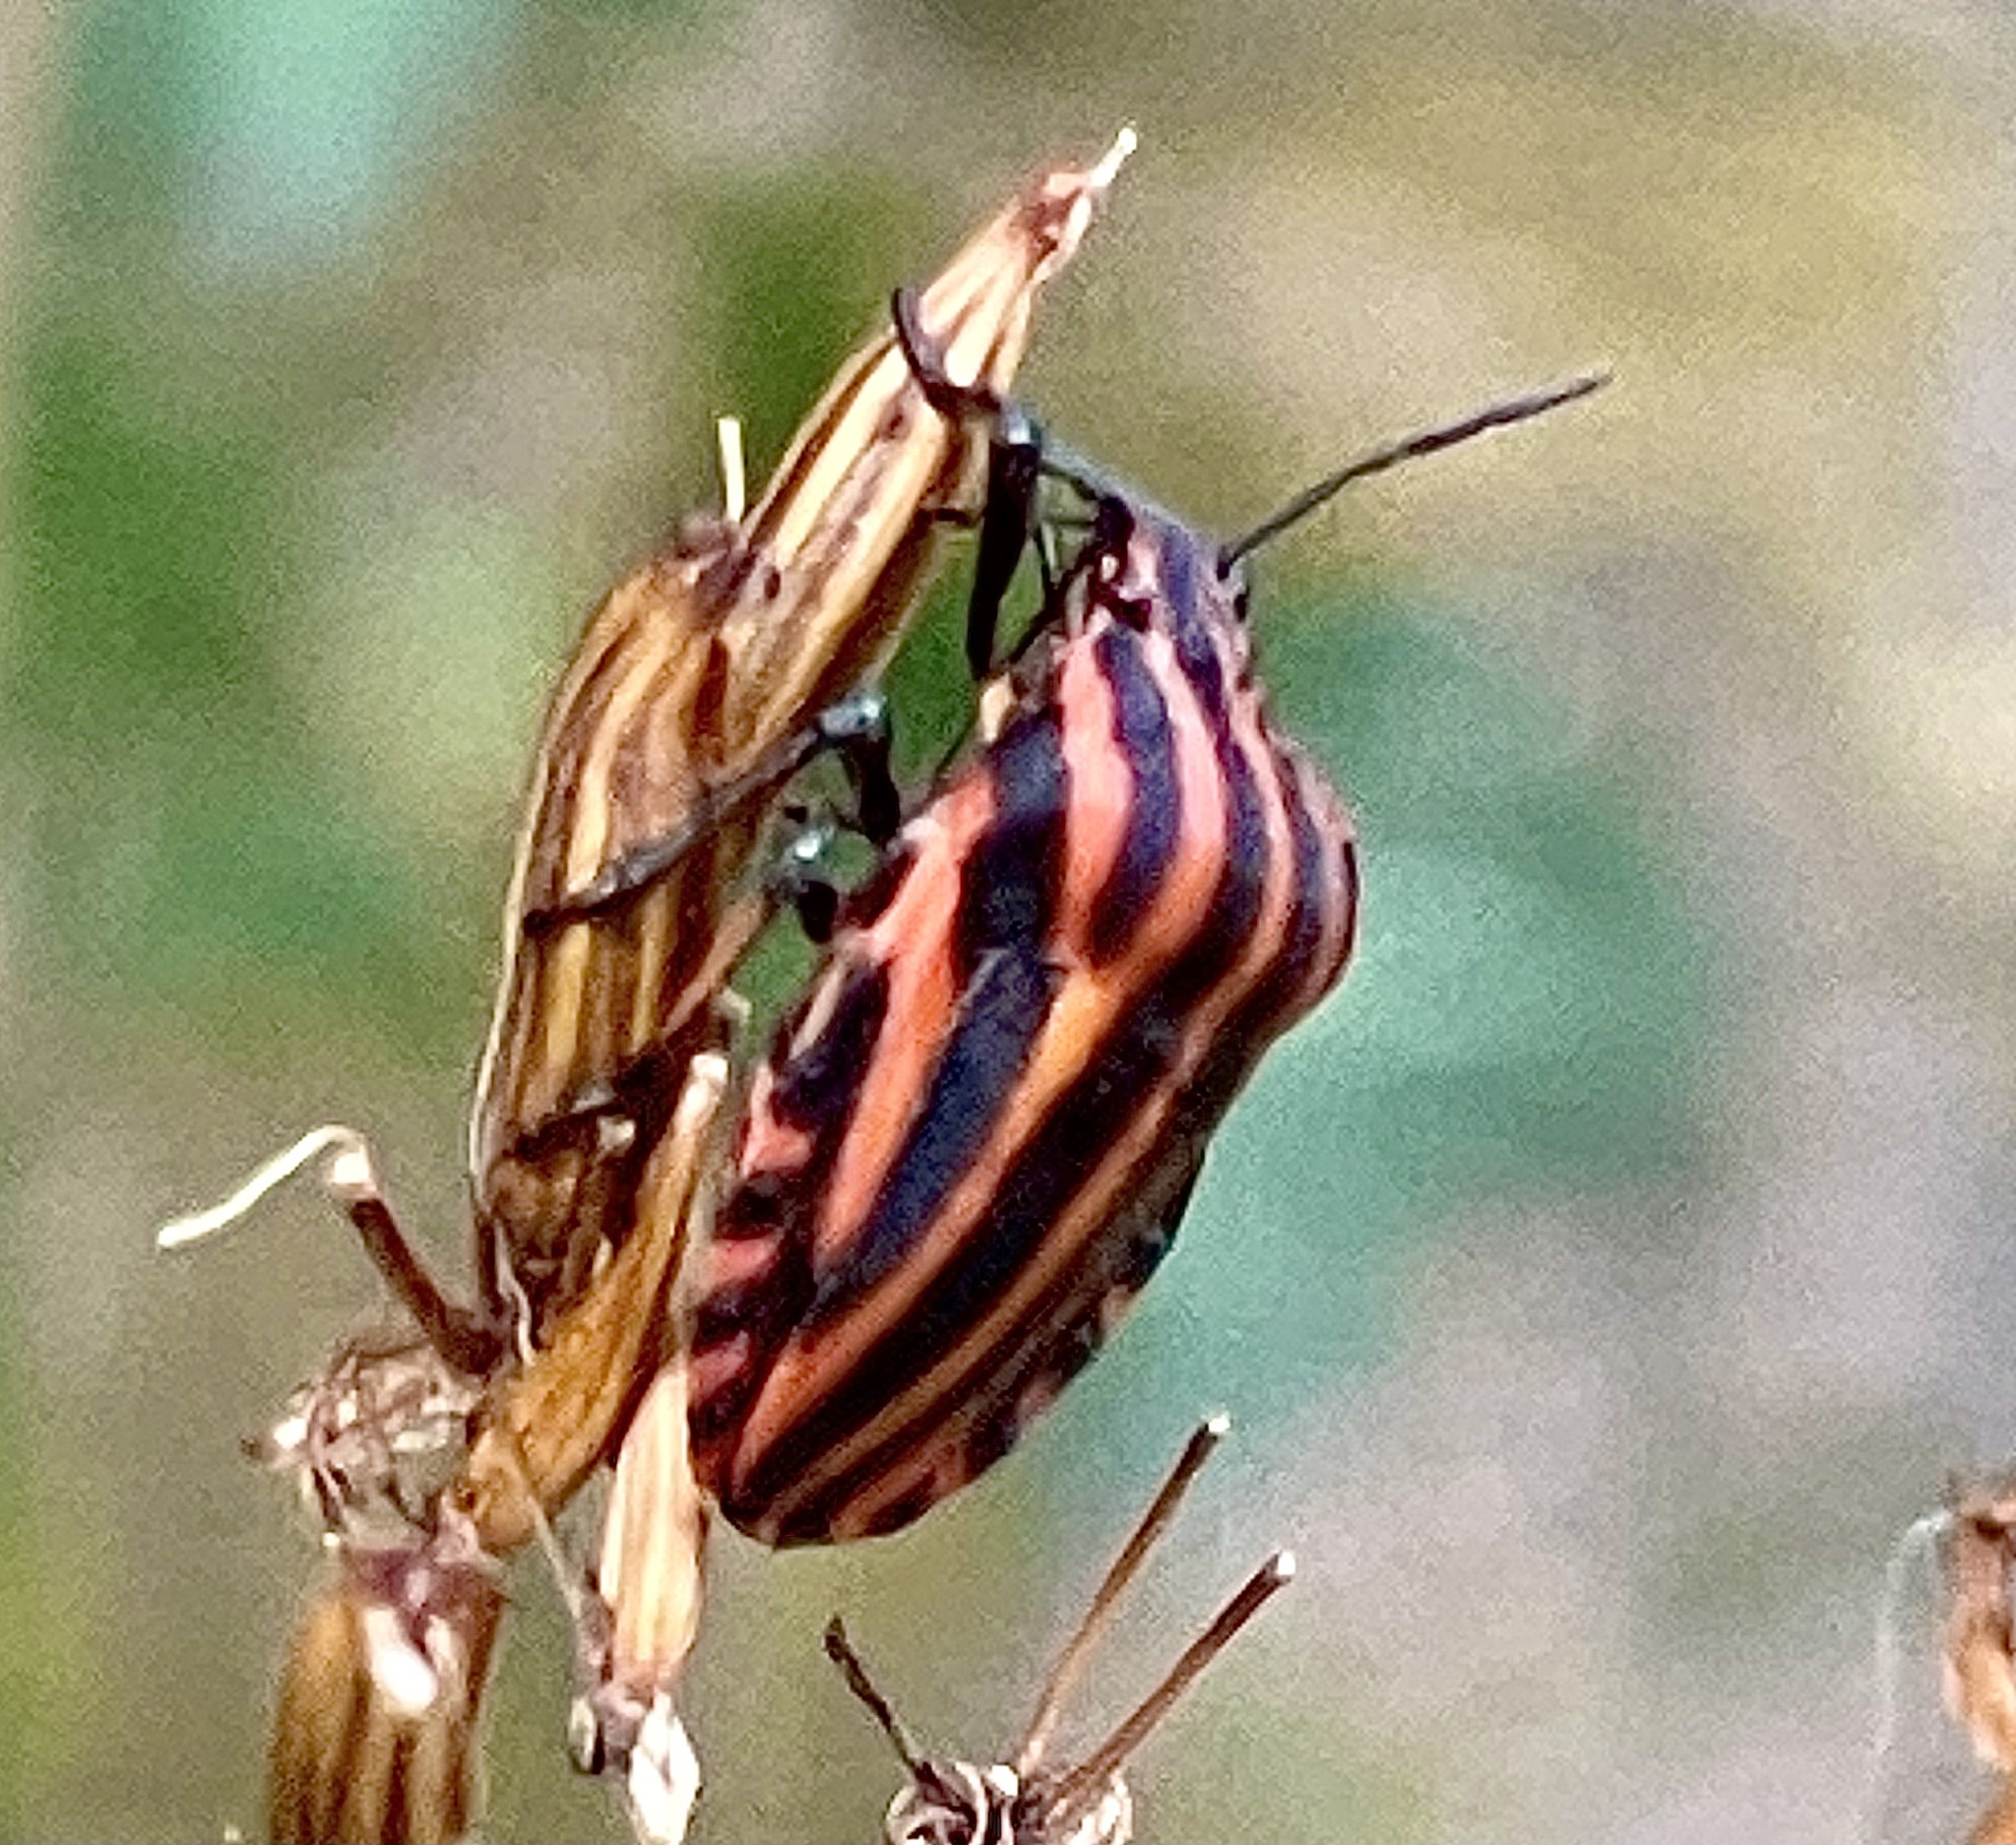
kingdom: Animalia
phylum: Arthropoda
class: Insecta
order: Hemiptera
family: Pentatomidae
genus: Graphosoma
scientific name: Graphosoma italicum
